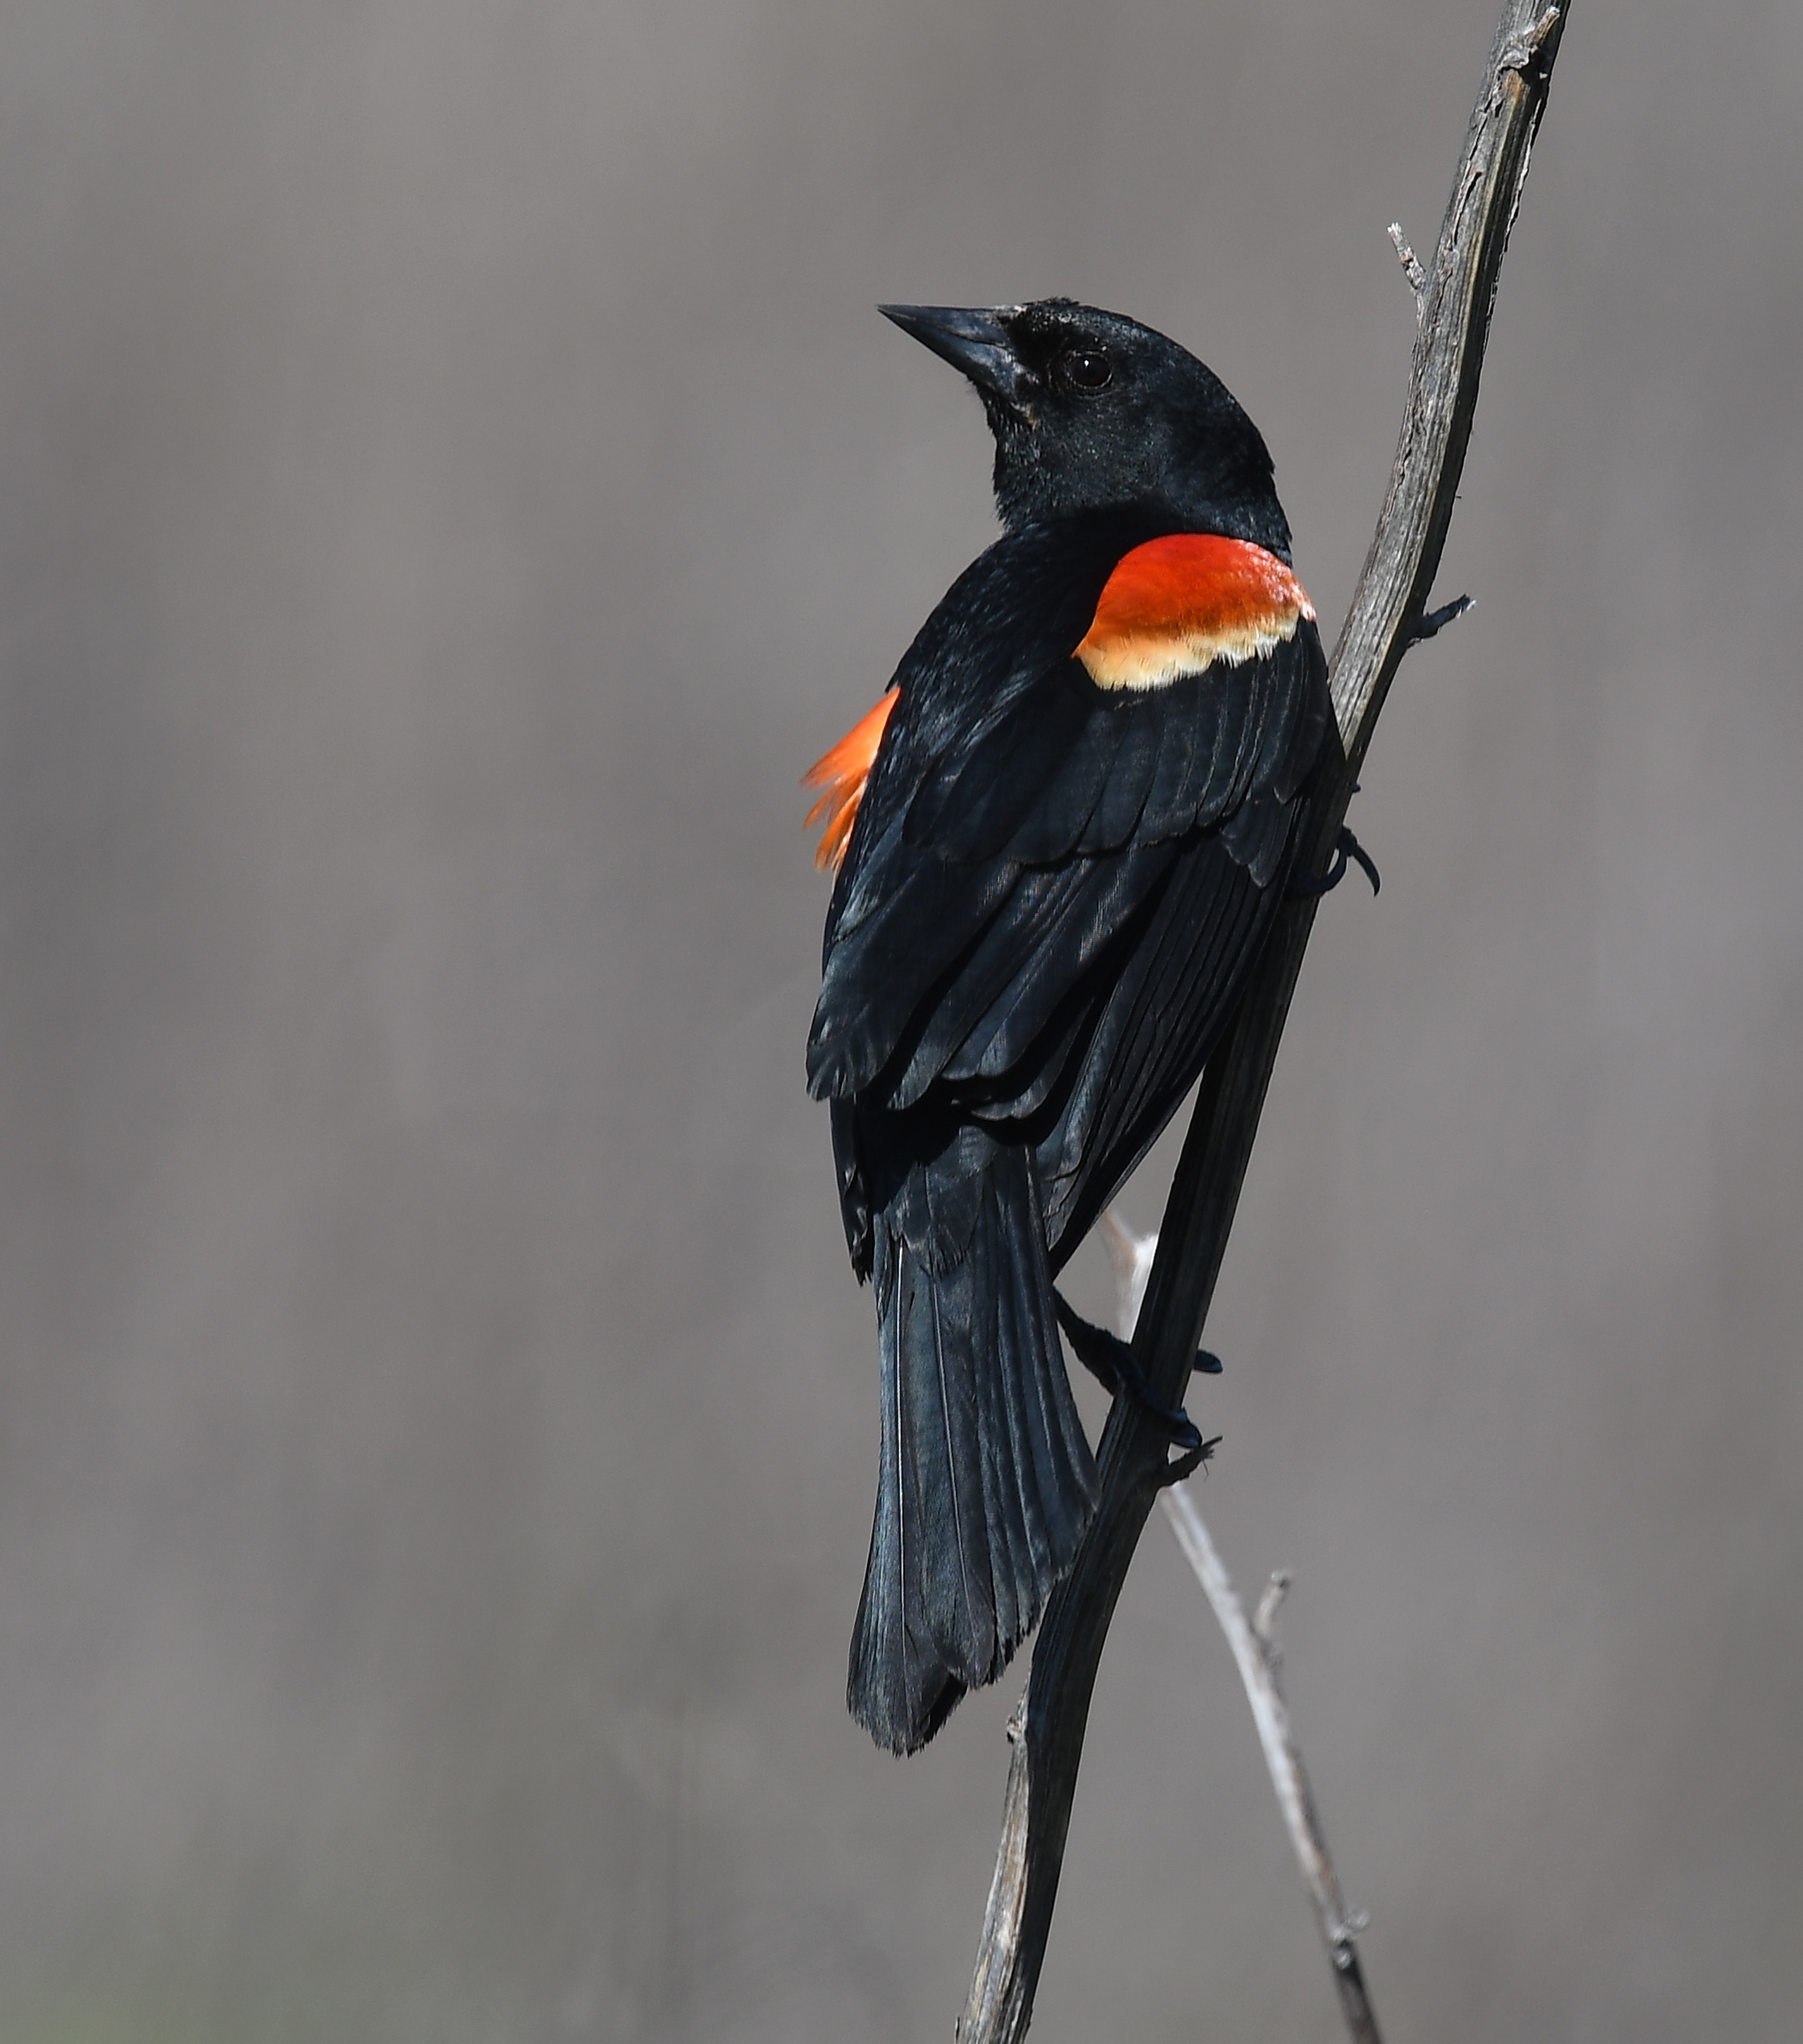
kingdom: Animalia
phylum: Chordata
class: Aves
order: Passeriformes
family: Icteridae
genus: Agelaius
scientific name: Agelaius phoeniceus
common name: Red-winged blackbird
